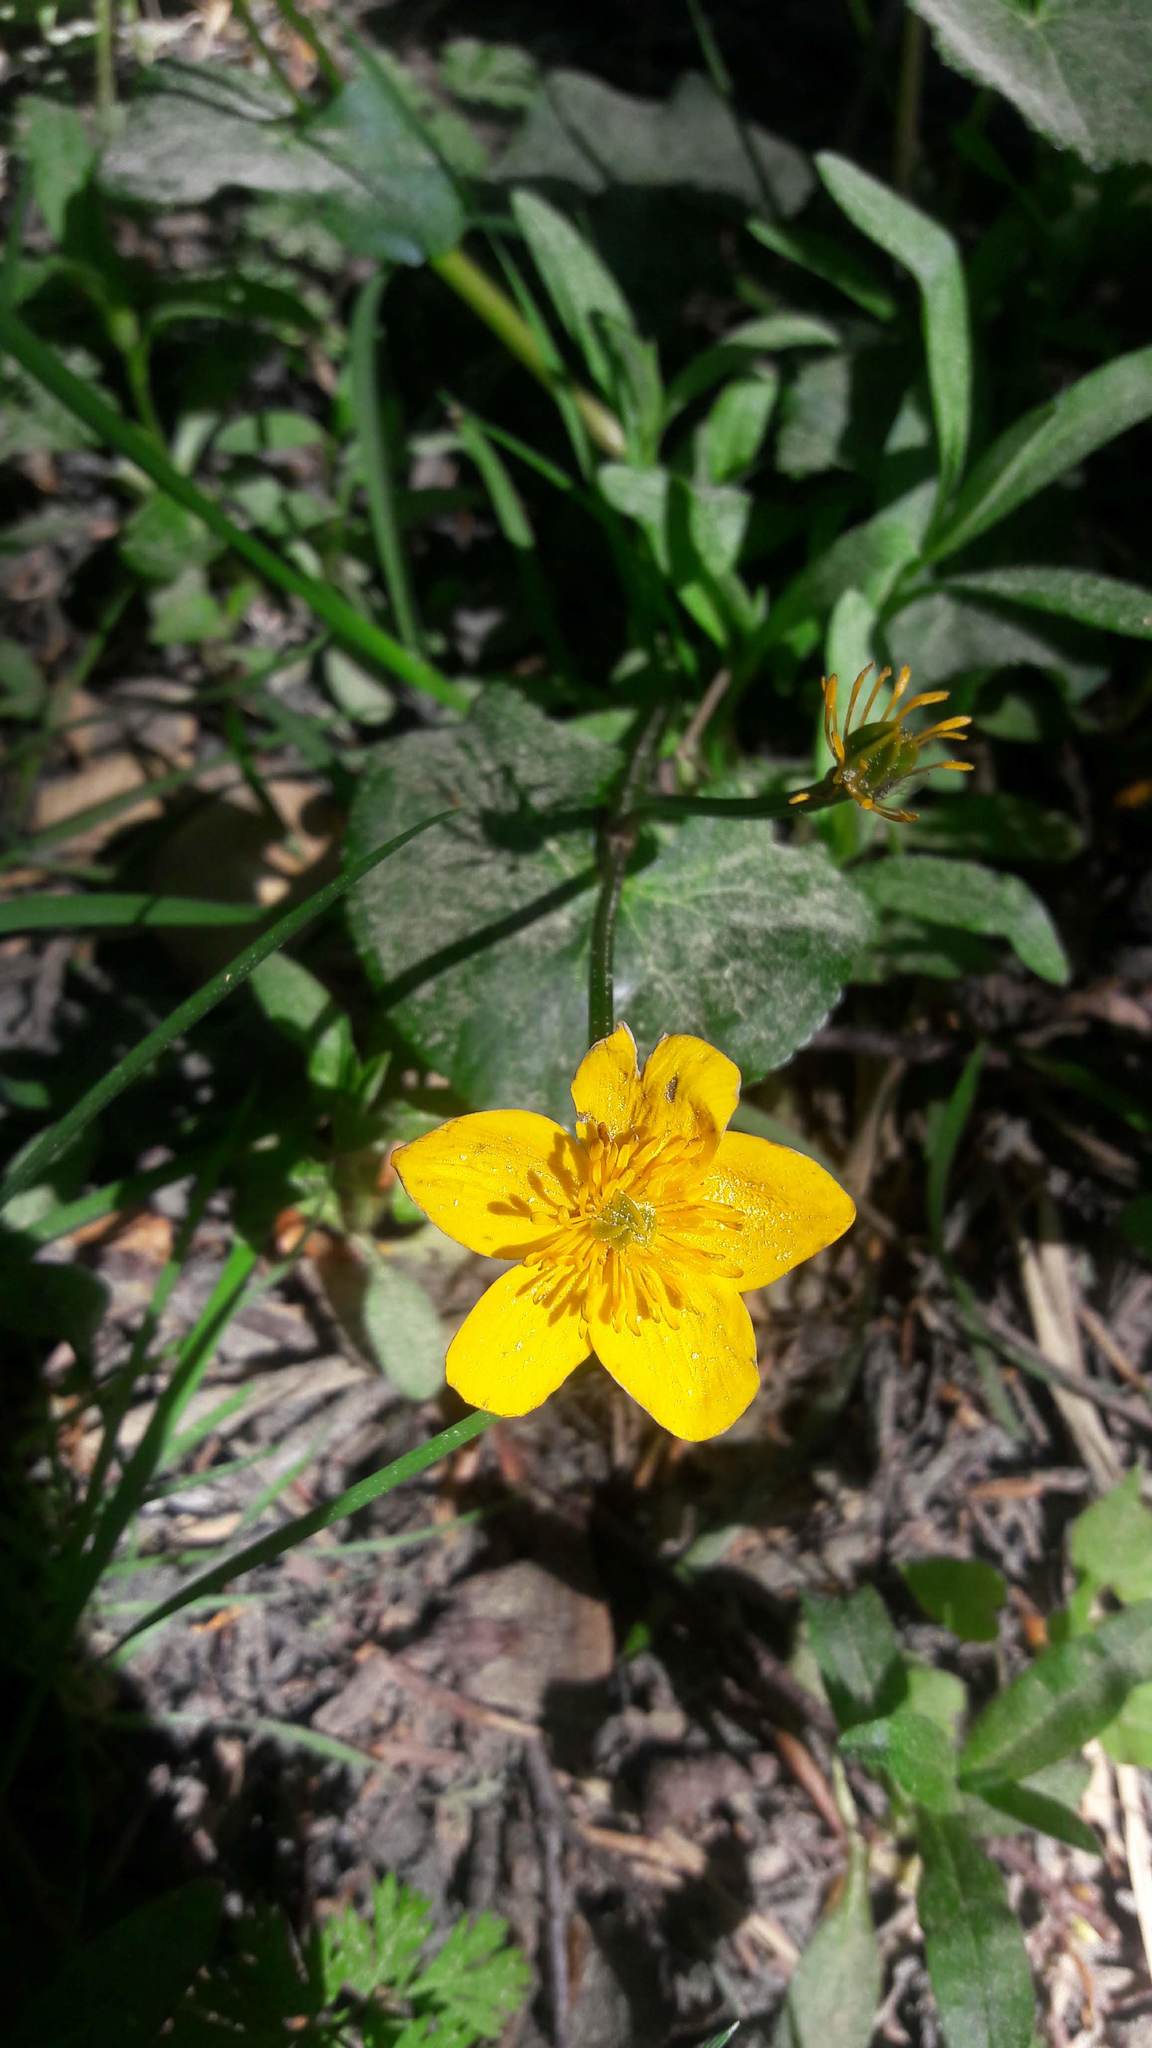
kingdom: Plantae
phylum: Tracheophyta
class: Magnoliopsida
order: Ranunculales
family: Ranunculaceae
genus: Caltha
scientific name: Caltha palustris
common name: Marsh marigold
